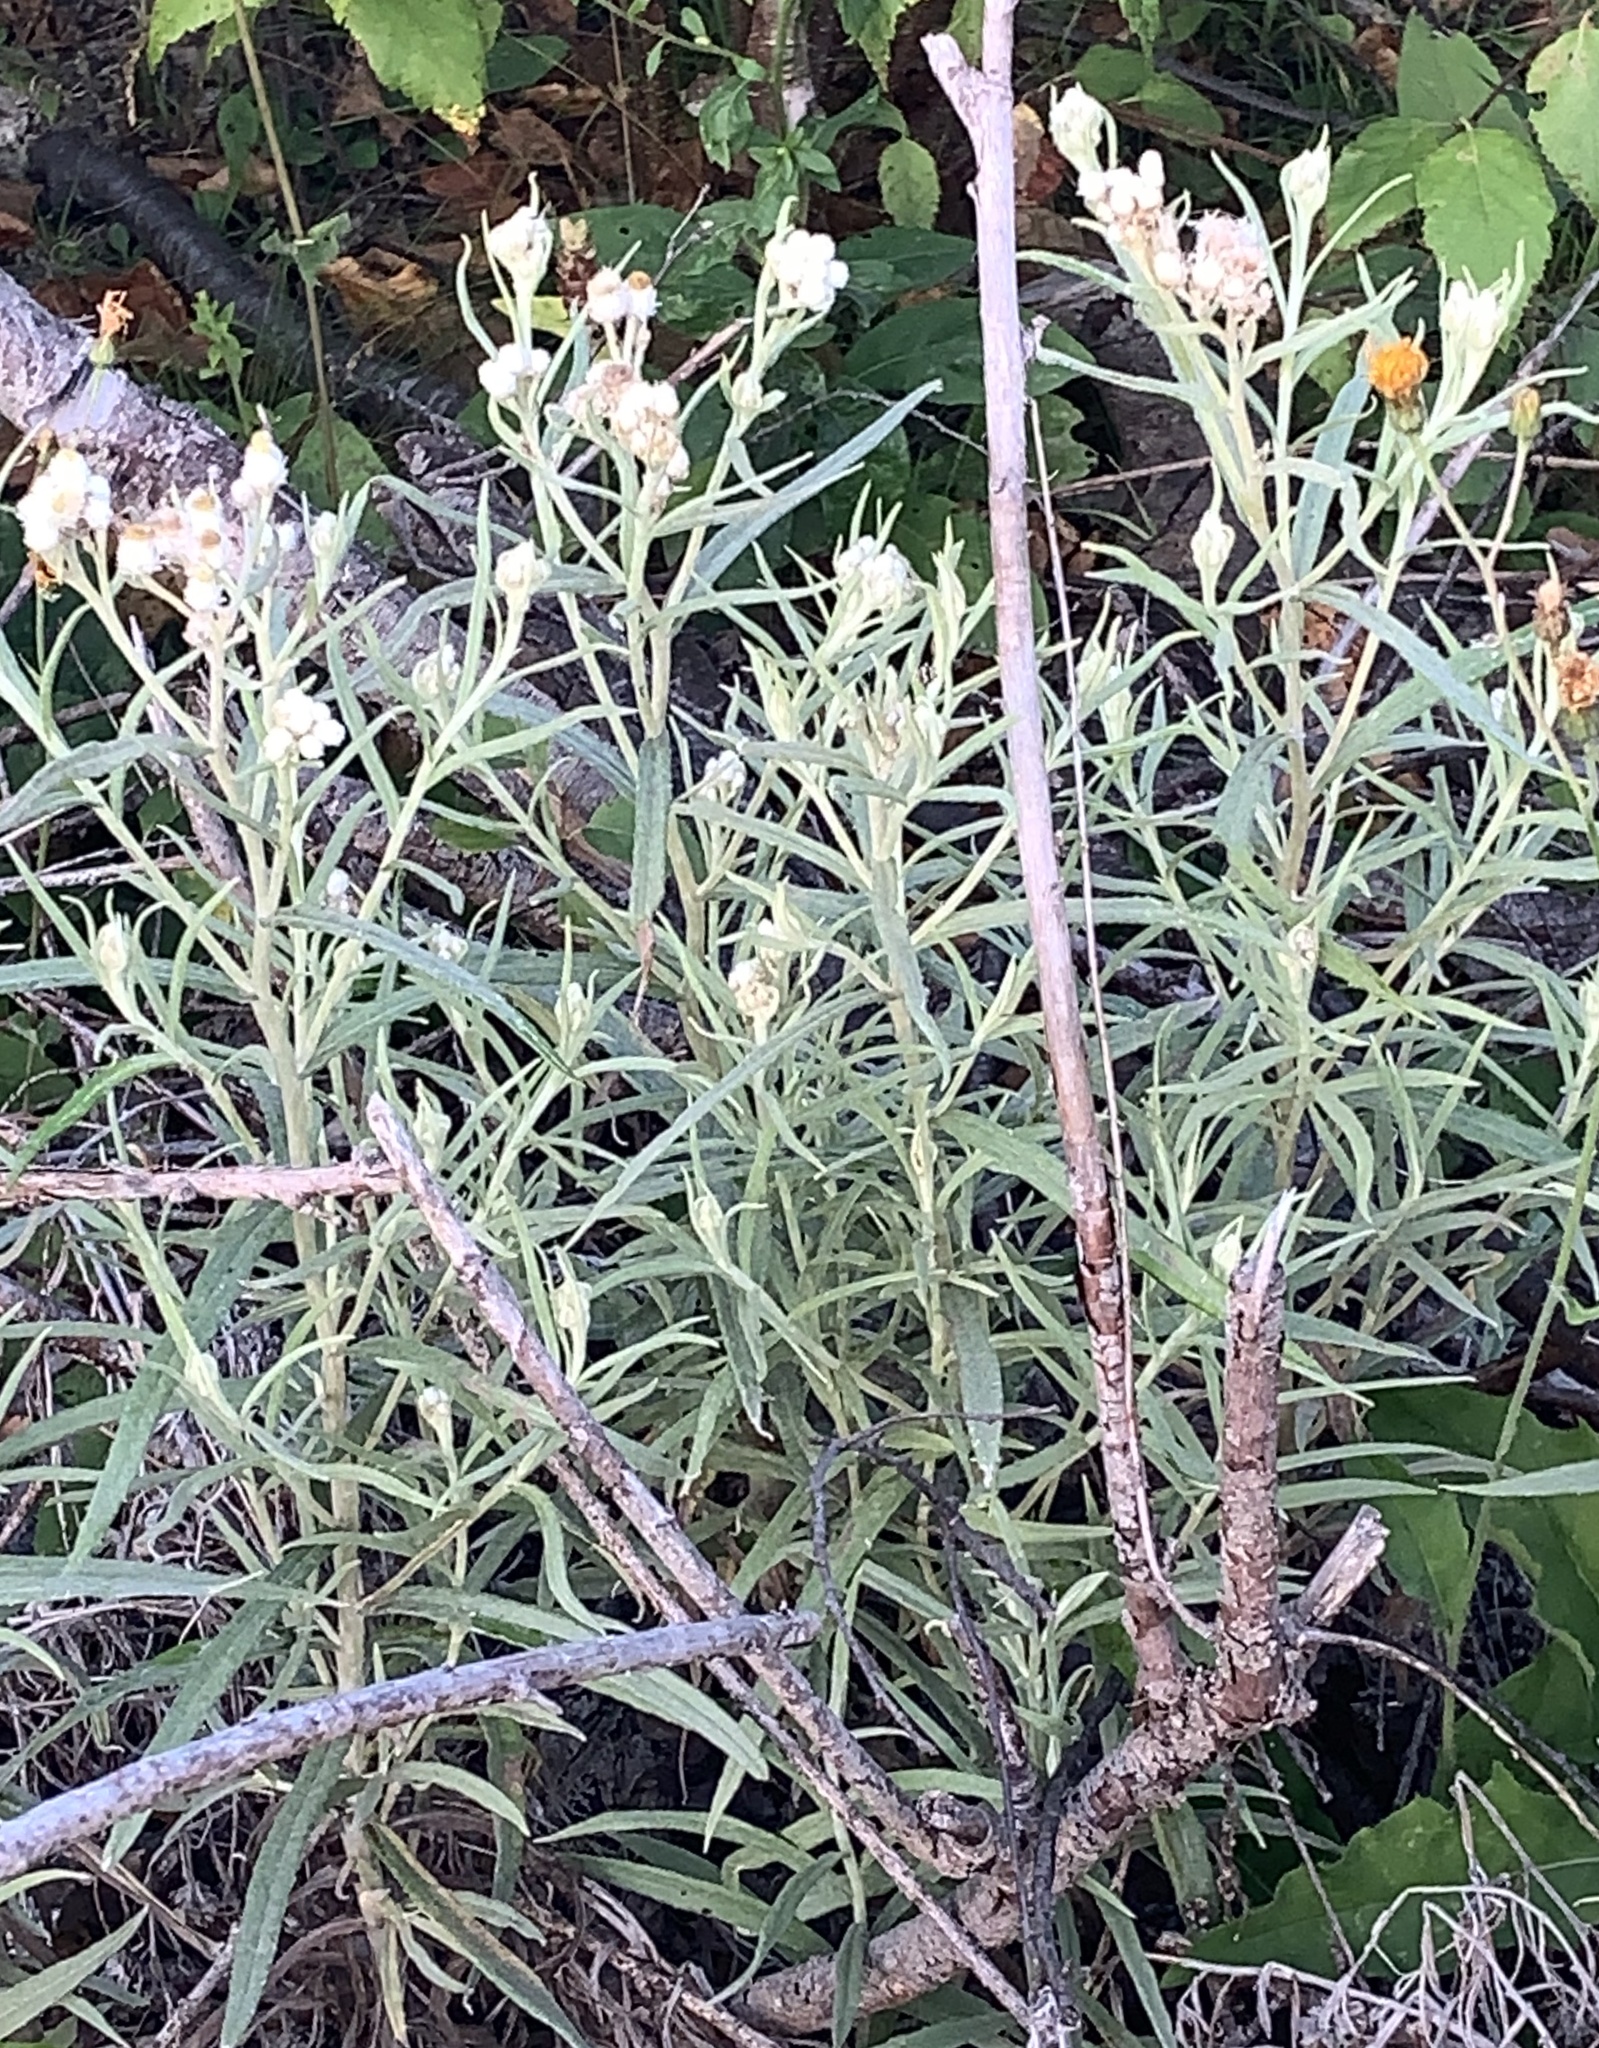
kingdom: Plantae
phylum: Tracheophyta
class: Magnoliopsida
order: Asterales
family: Asteraceae
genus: Anaphalis
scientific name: Anaphalis margaritacea
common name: Pearly everlasting
